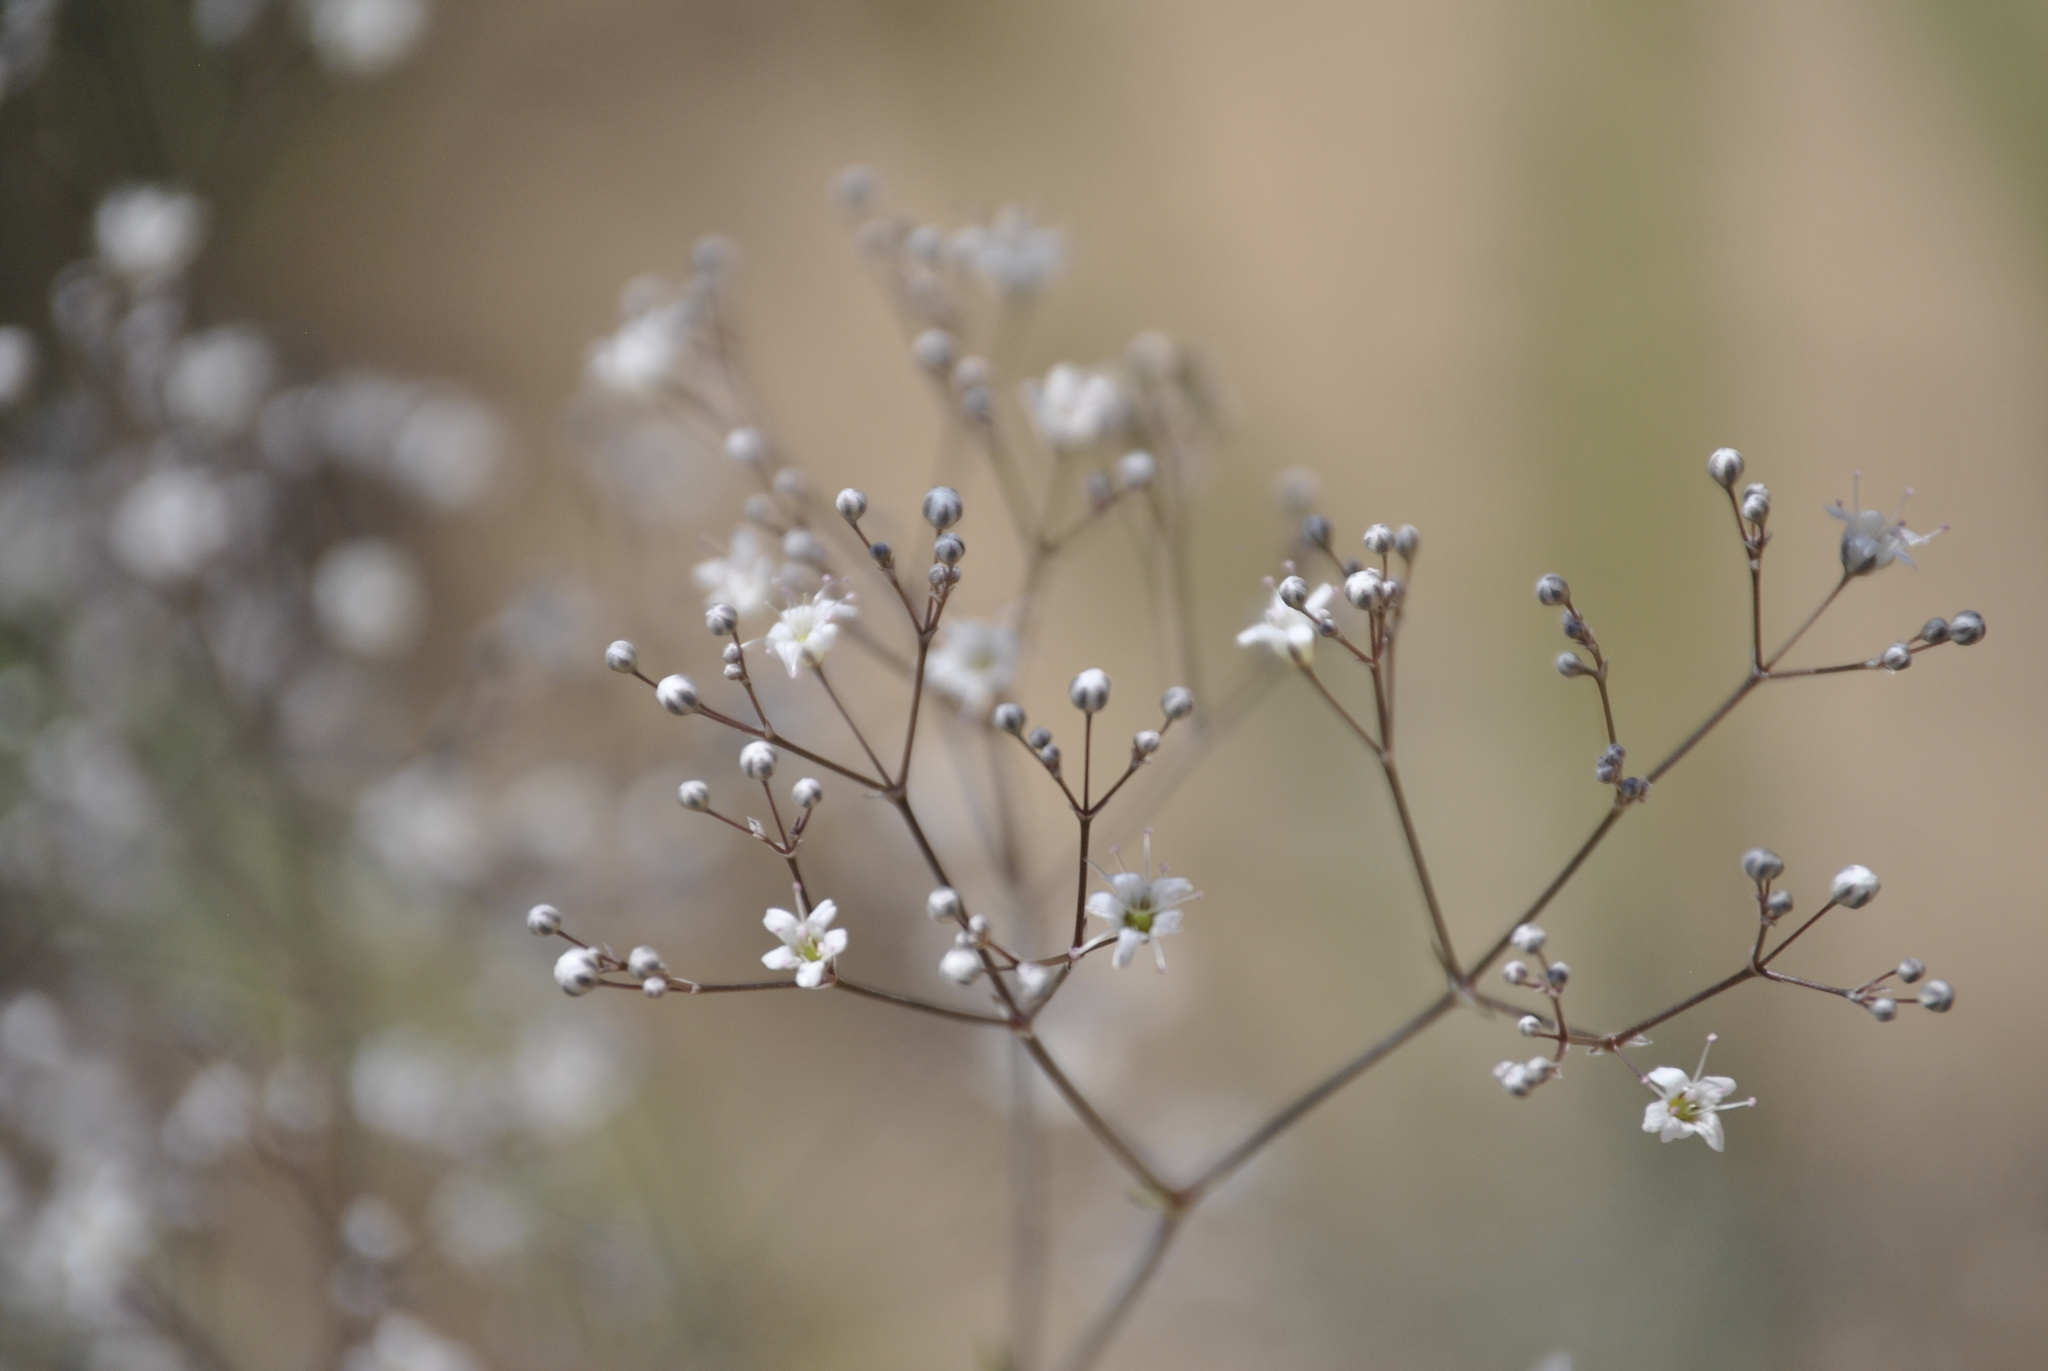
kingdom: Plantae
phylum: Tracheophyta
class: Magnoliopsida
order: Caryophyllales
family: Caryophyllaceae
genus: Gypsophila
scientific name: Gypsophila paniculata
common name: Baby's-breath
